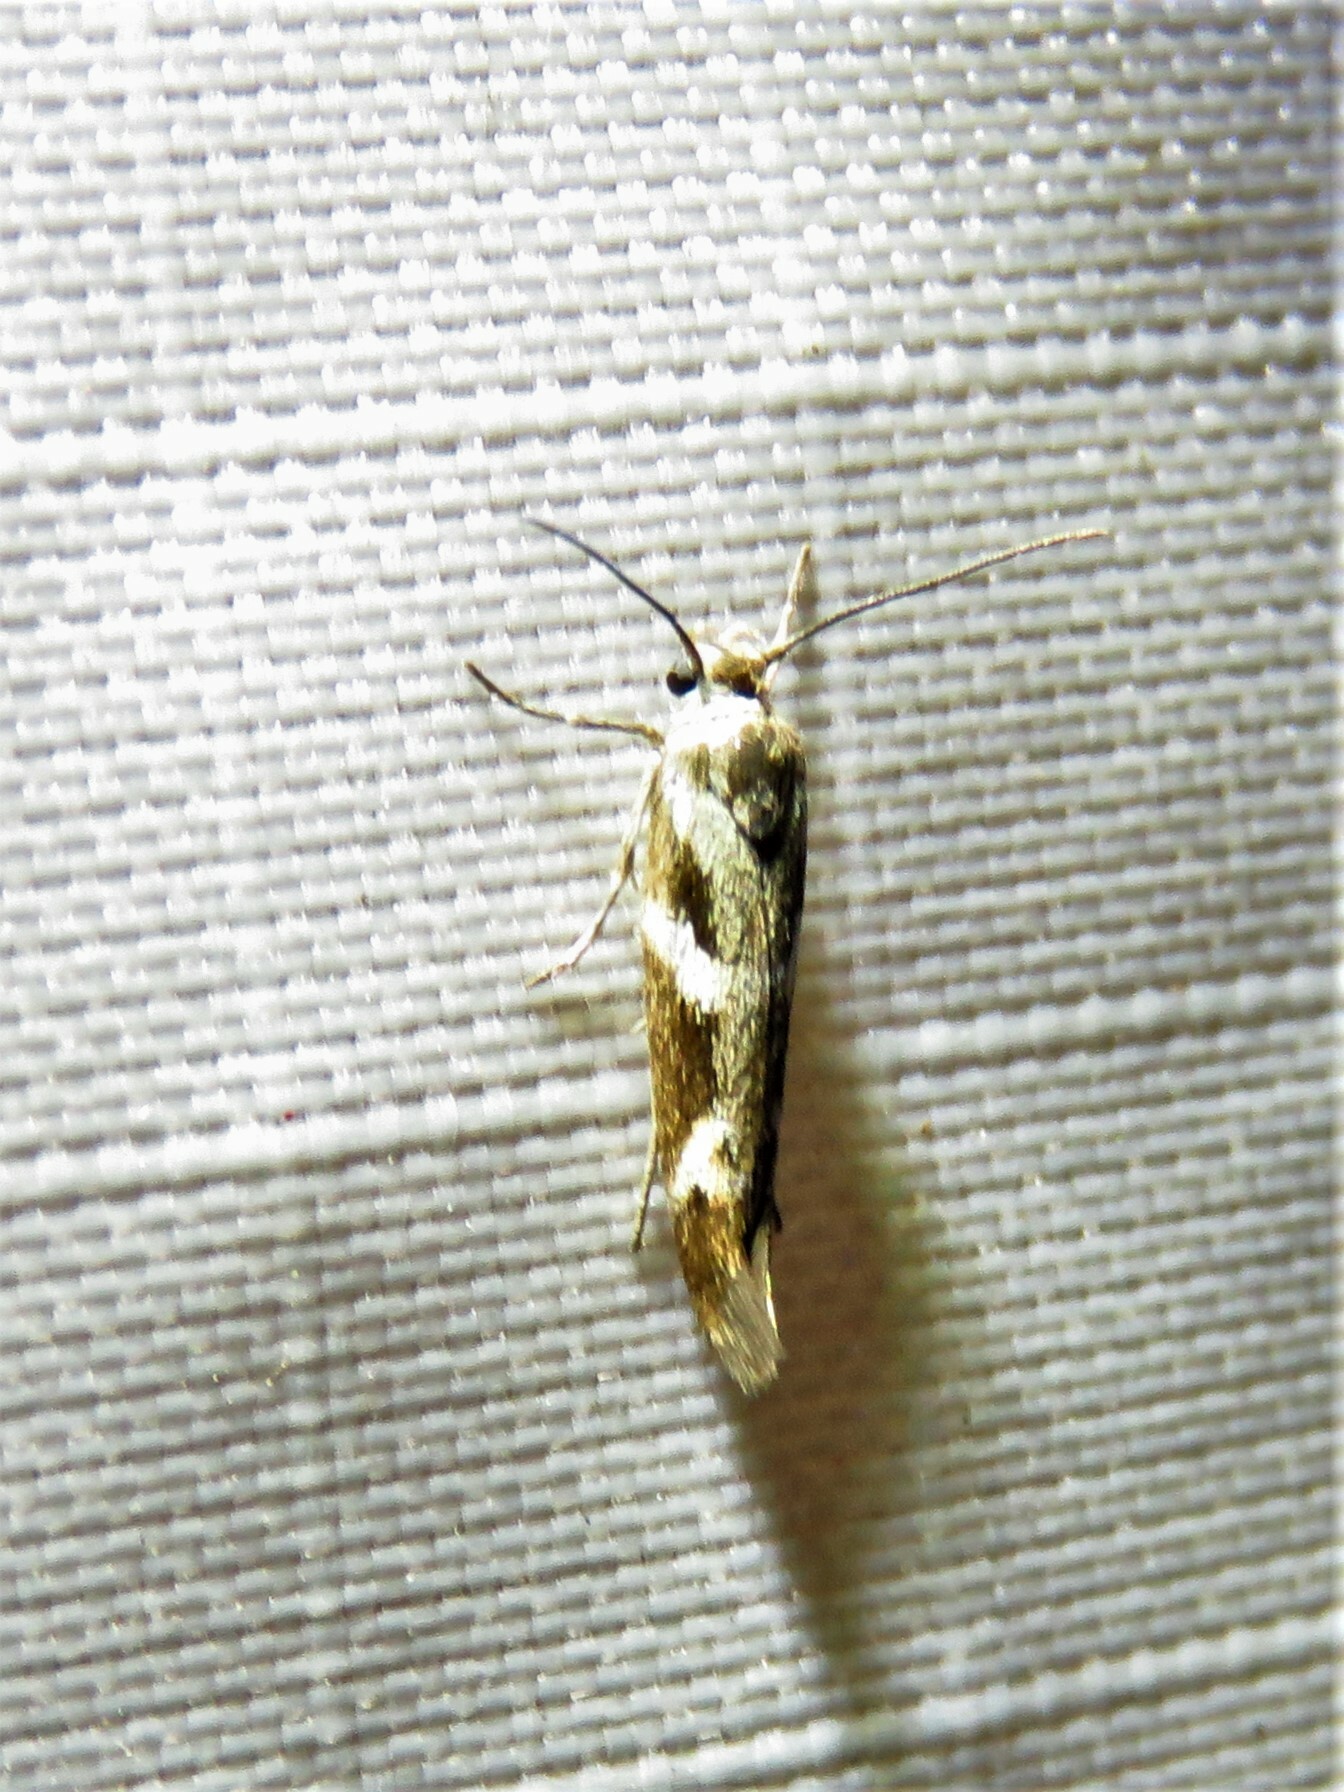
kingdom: Animalia
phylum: Arthropoda
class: Insecta
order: Lepidoptera
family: Scythrididae
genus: Scythris
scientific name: Scythris trivinctella
